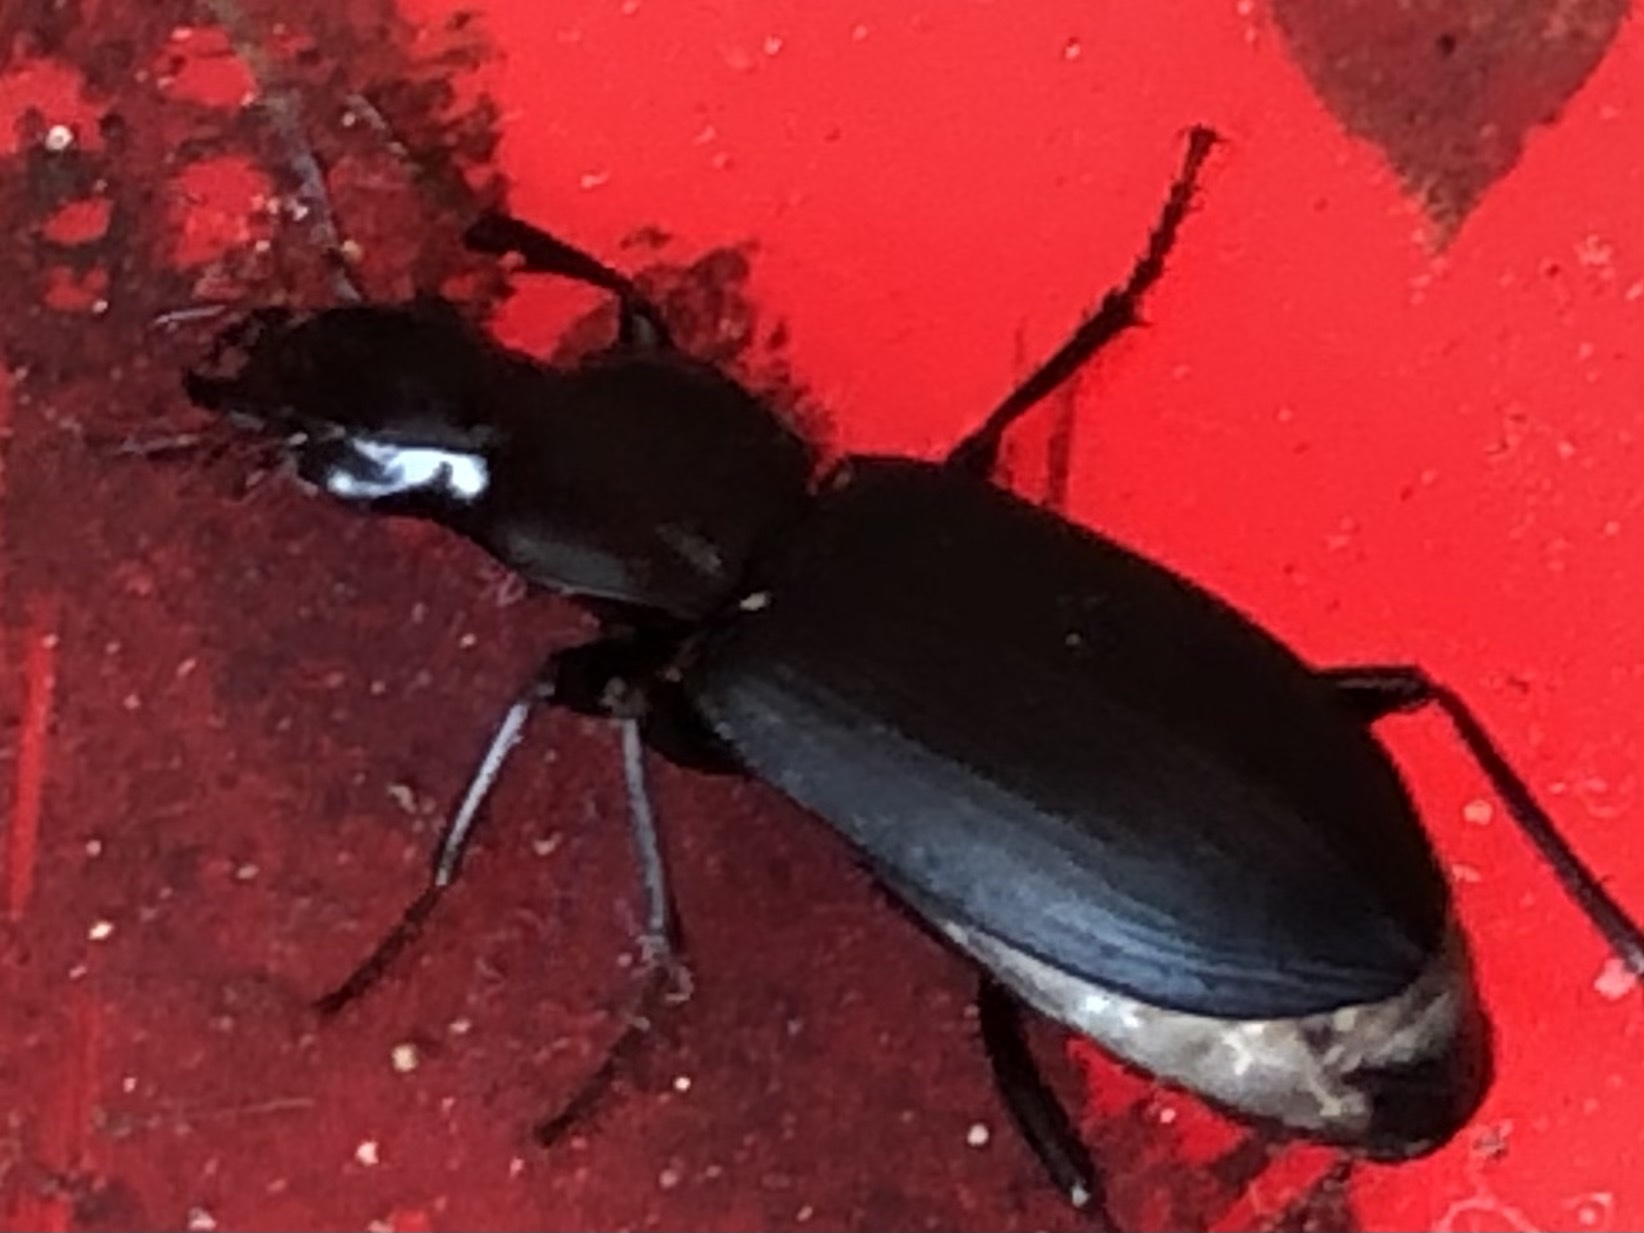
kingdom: Animalia
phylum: Arthropoda
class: Insecta
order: Coleoptera
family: Carabidae
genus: Laemostenus
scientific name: Laemostenus complanatus
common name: Cosmopolitan ground beetle
